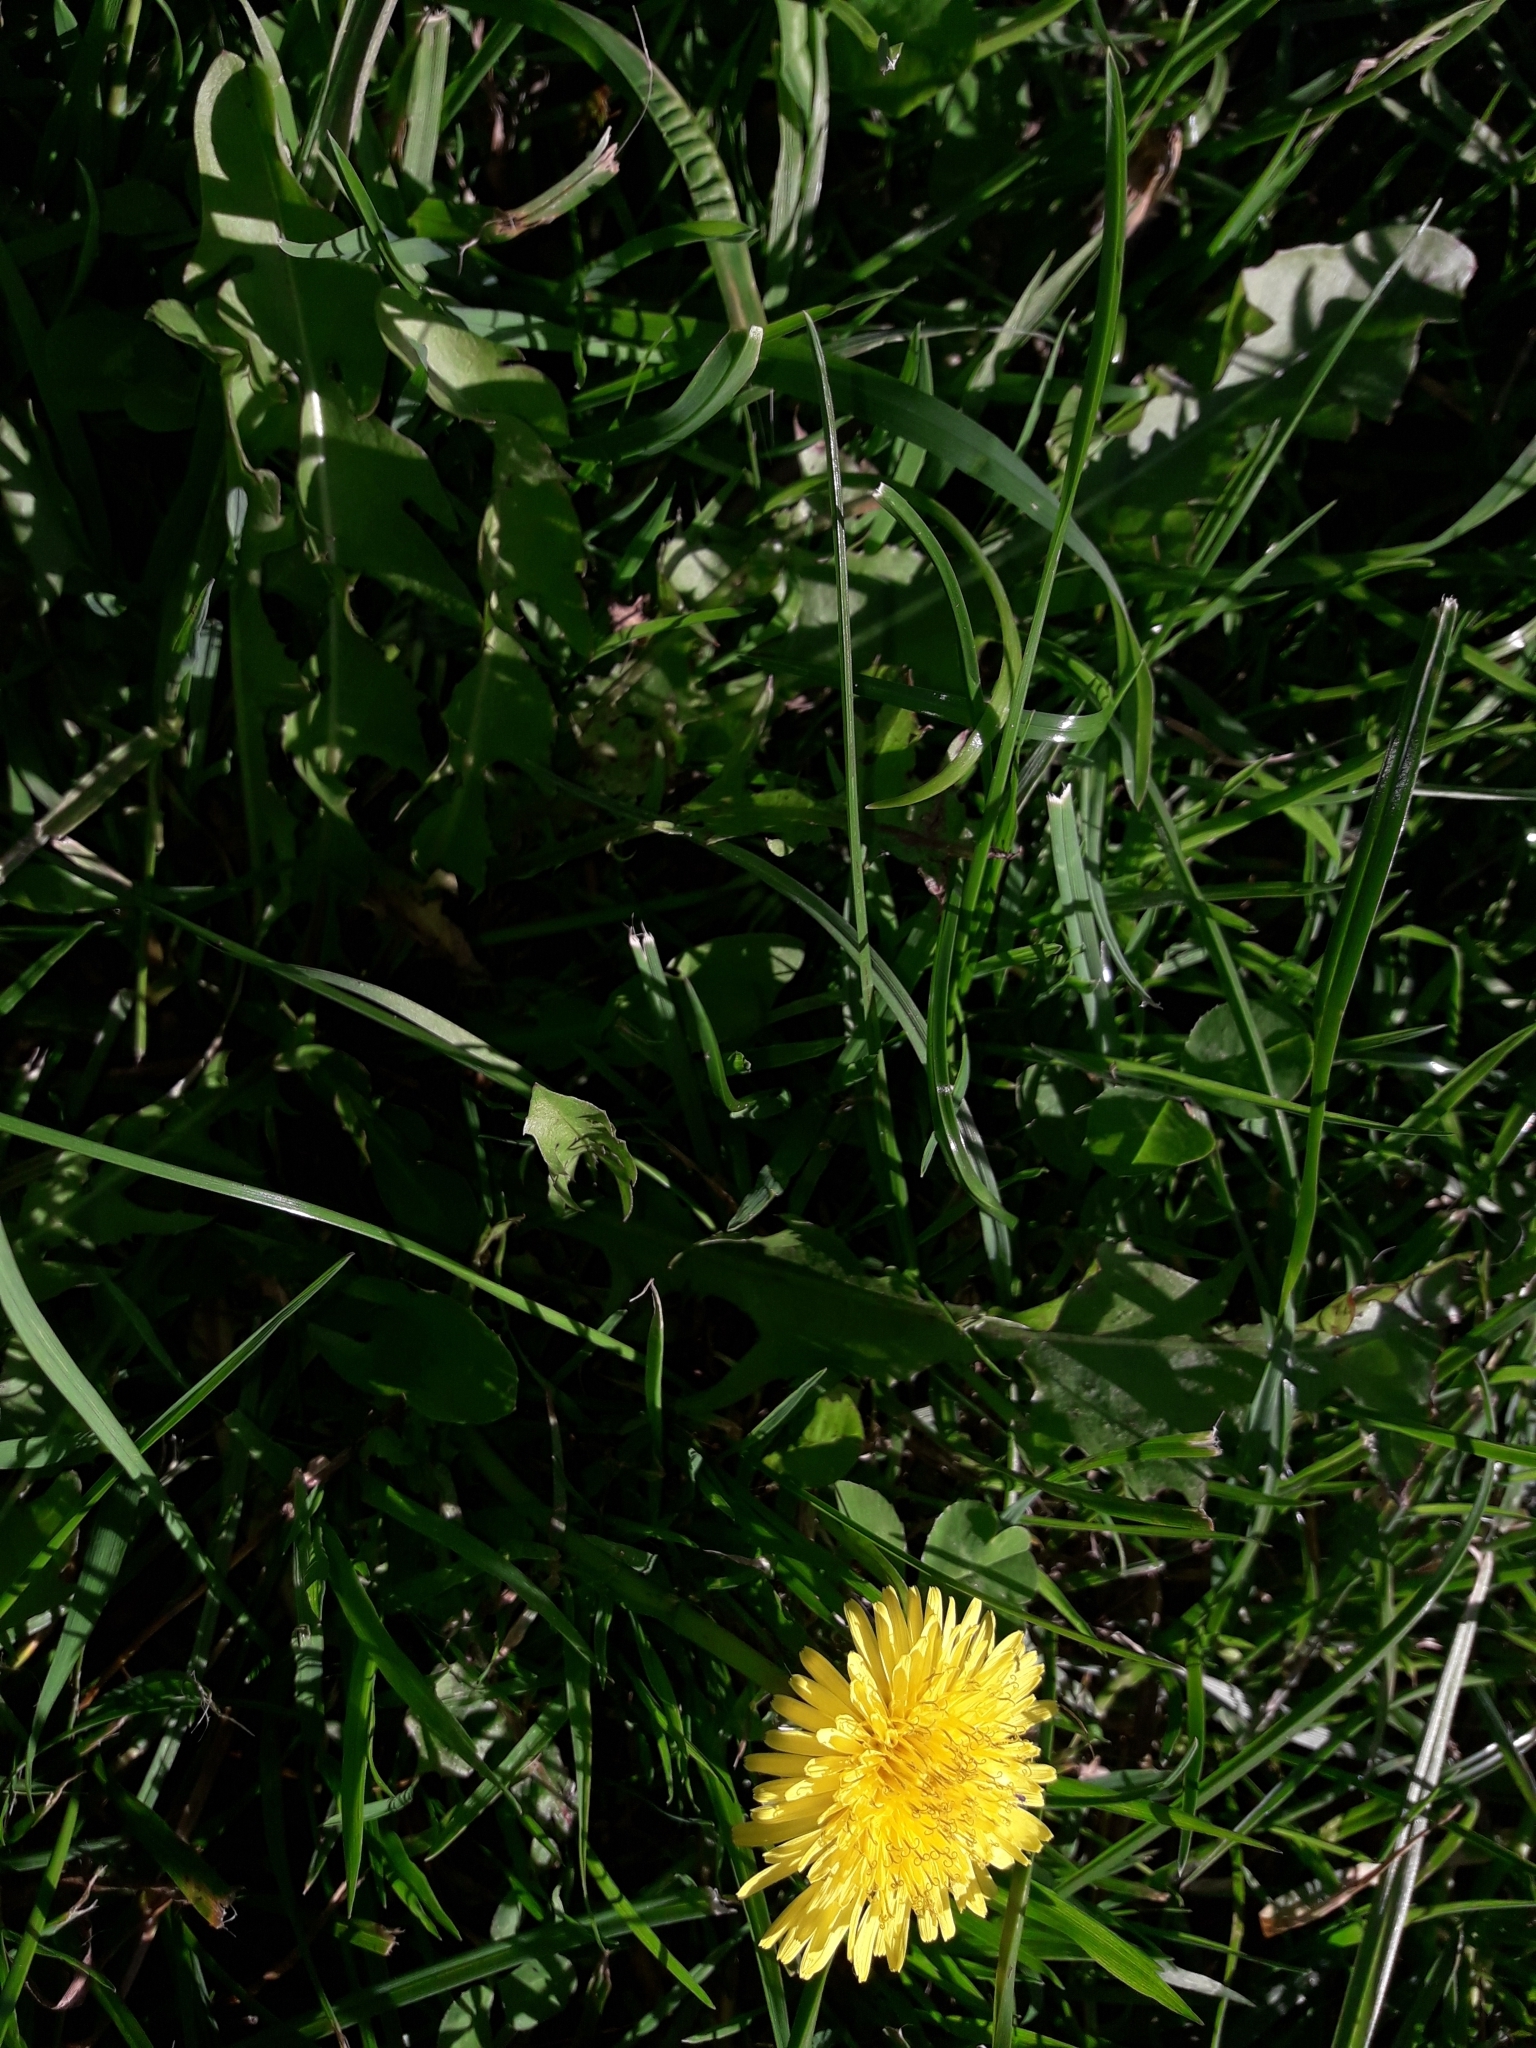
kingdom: Plantae
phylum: Tracheophyta
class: Magnoliopsida
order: Asterales
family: Asteraceae
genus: Taraxacum
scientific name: Taraxacum officinale
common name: Common dandelion
